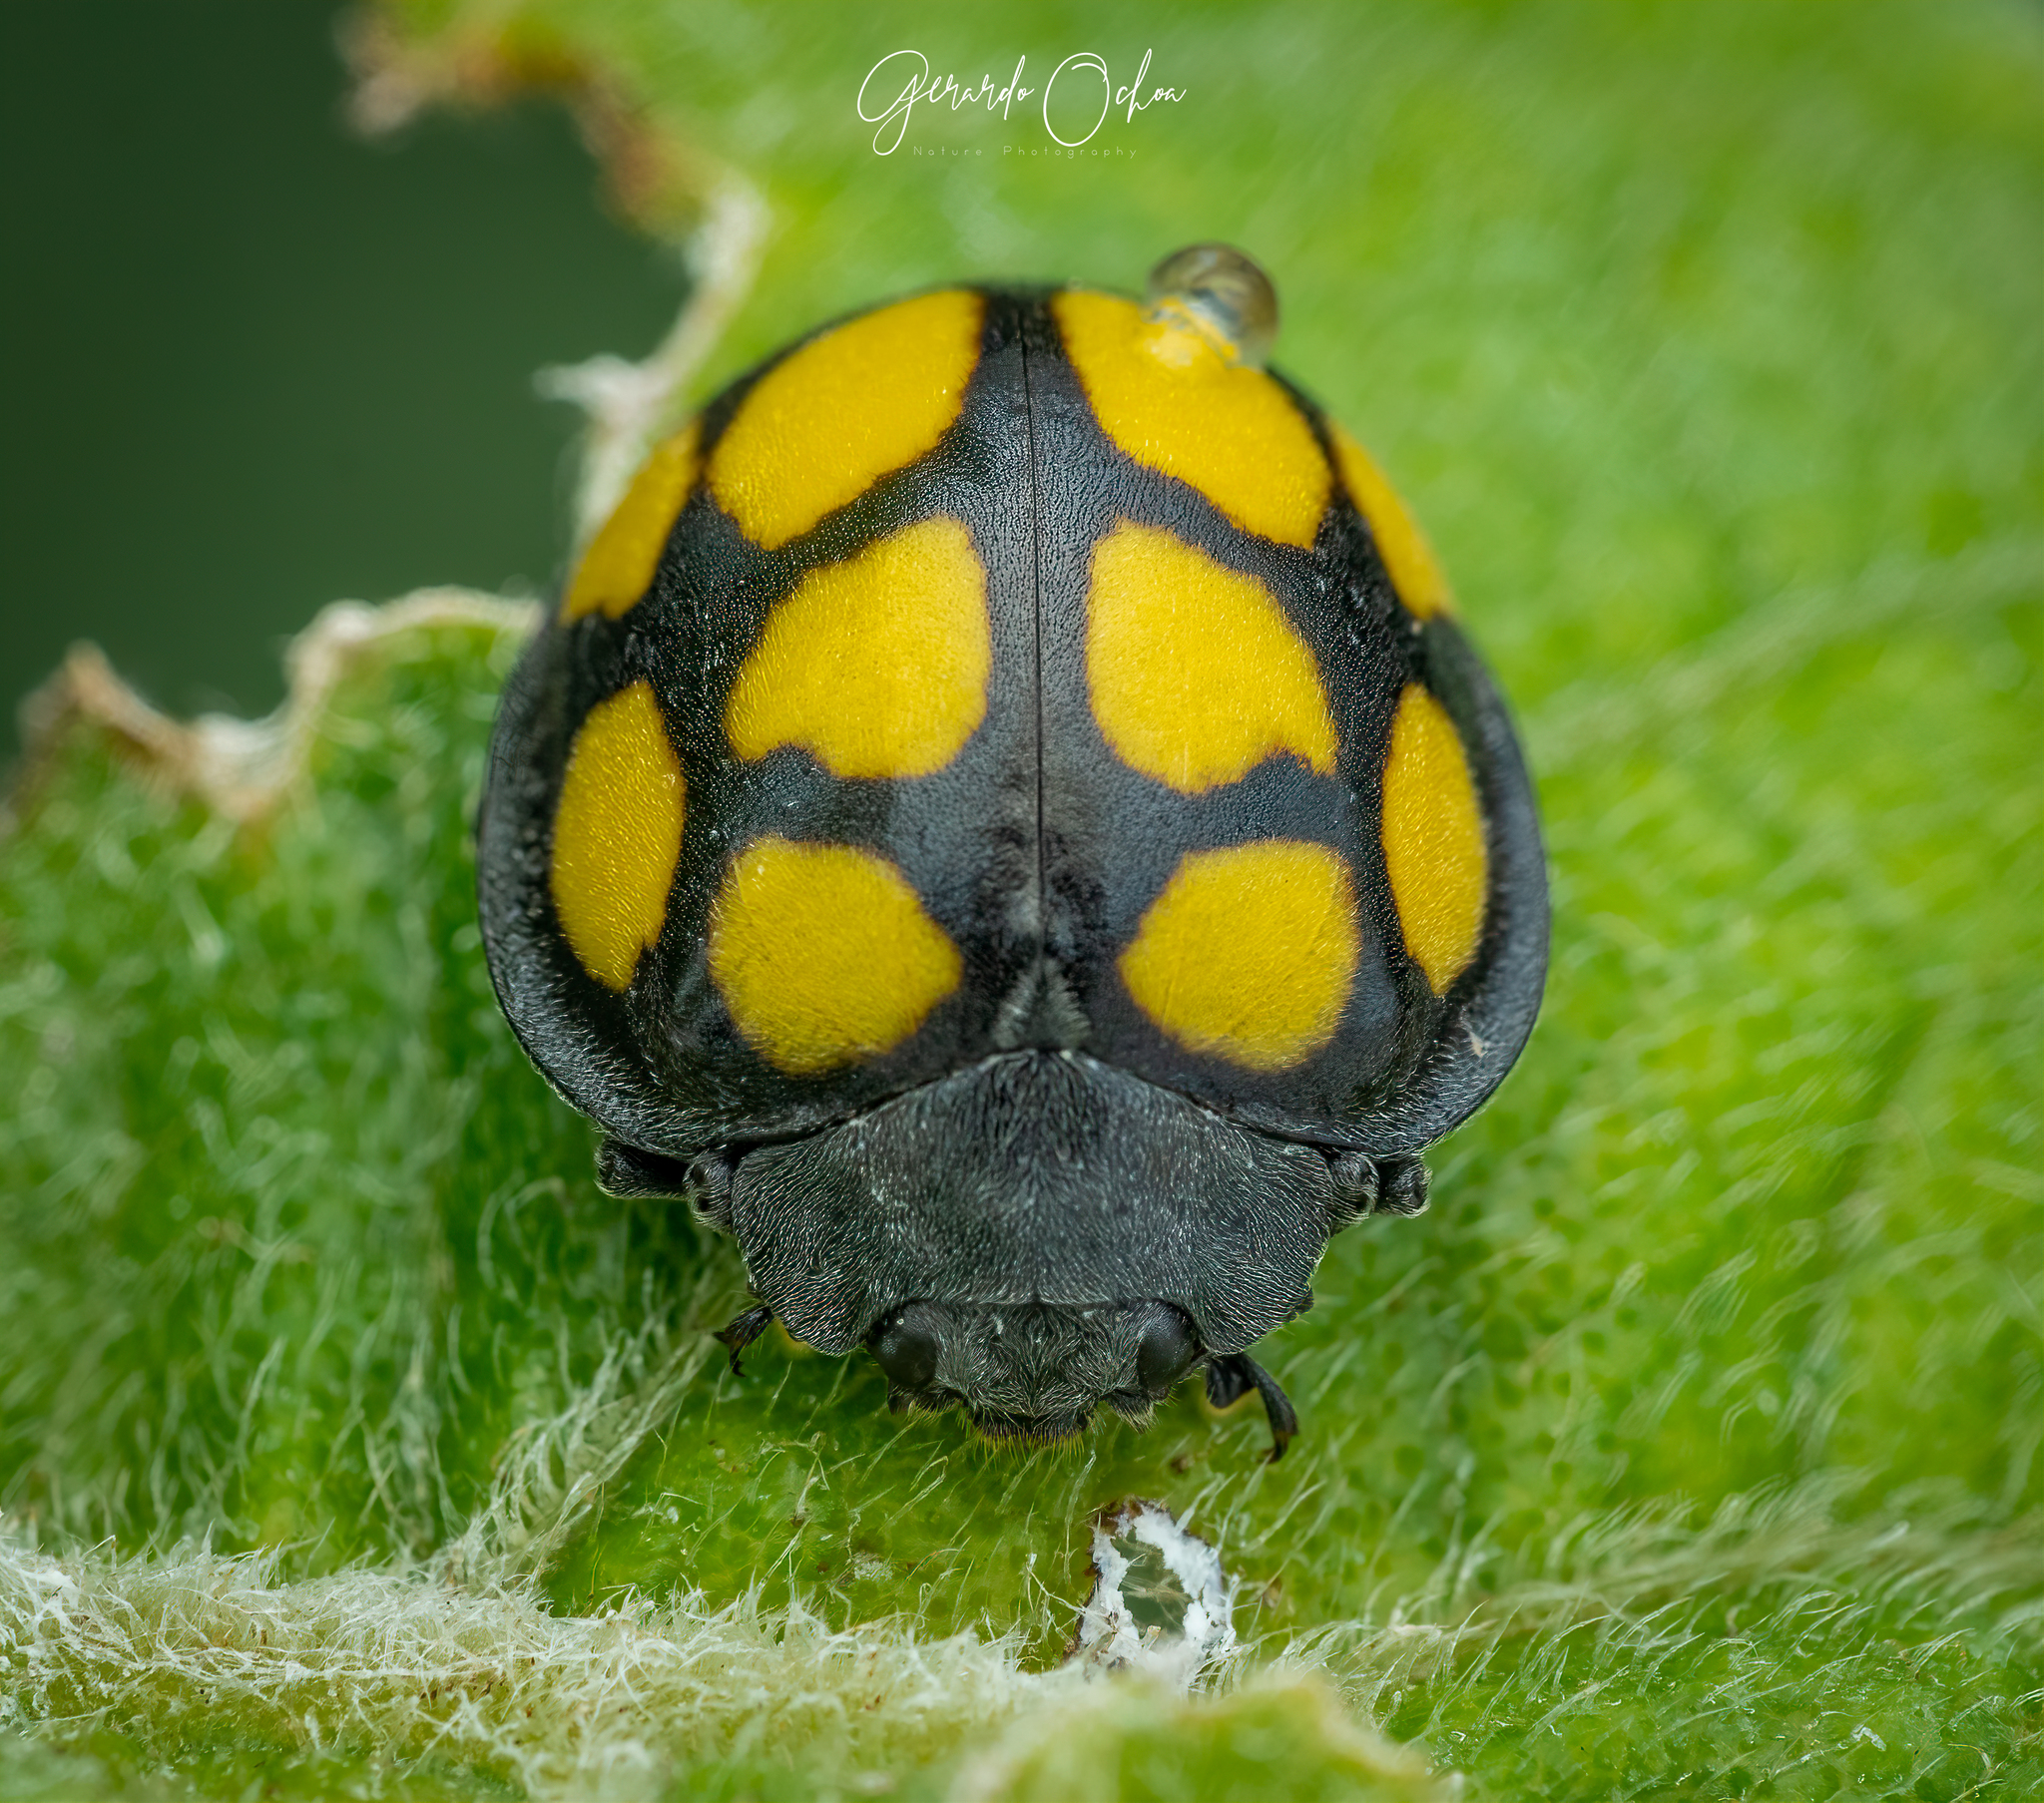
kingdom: Animalia
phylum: Arthropoda
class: Insecta
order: Coleoptera
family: Coccinellidae
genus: Epilachna
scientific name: Epilachna
